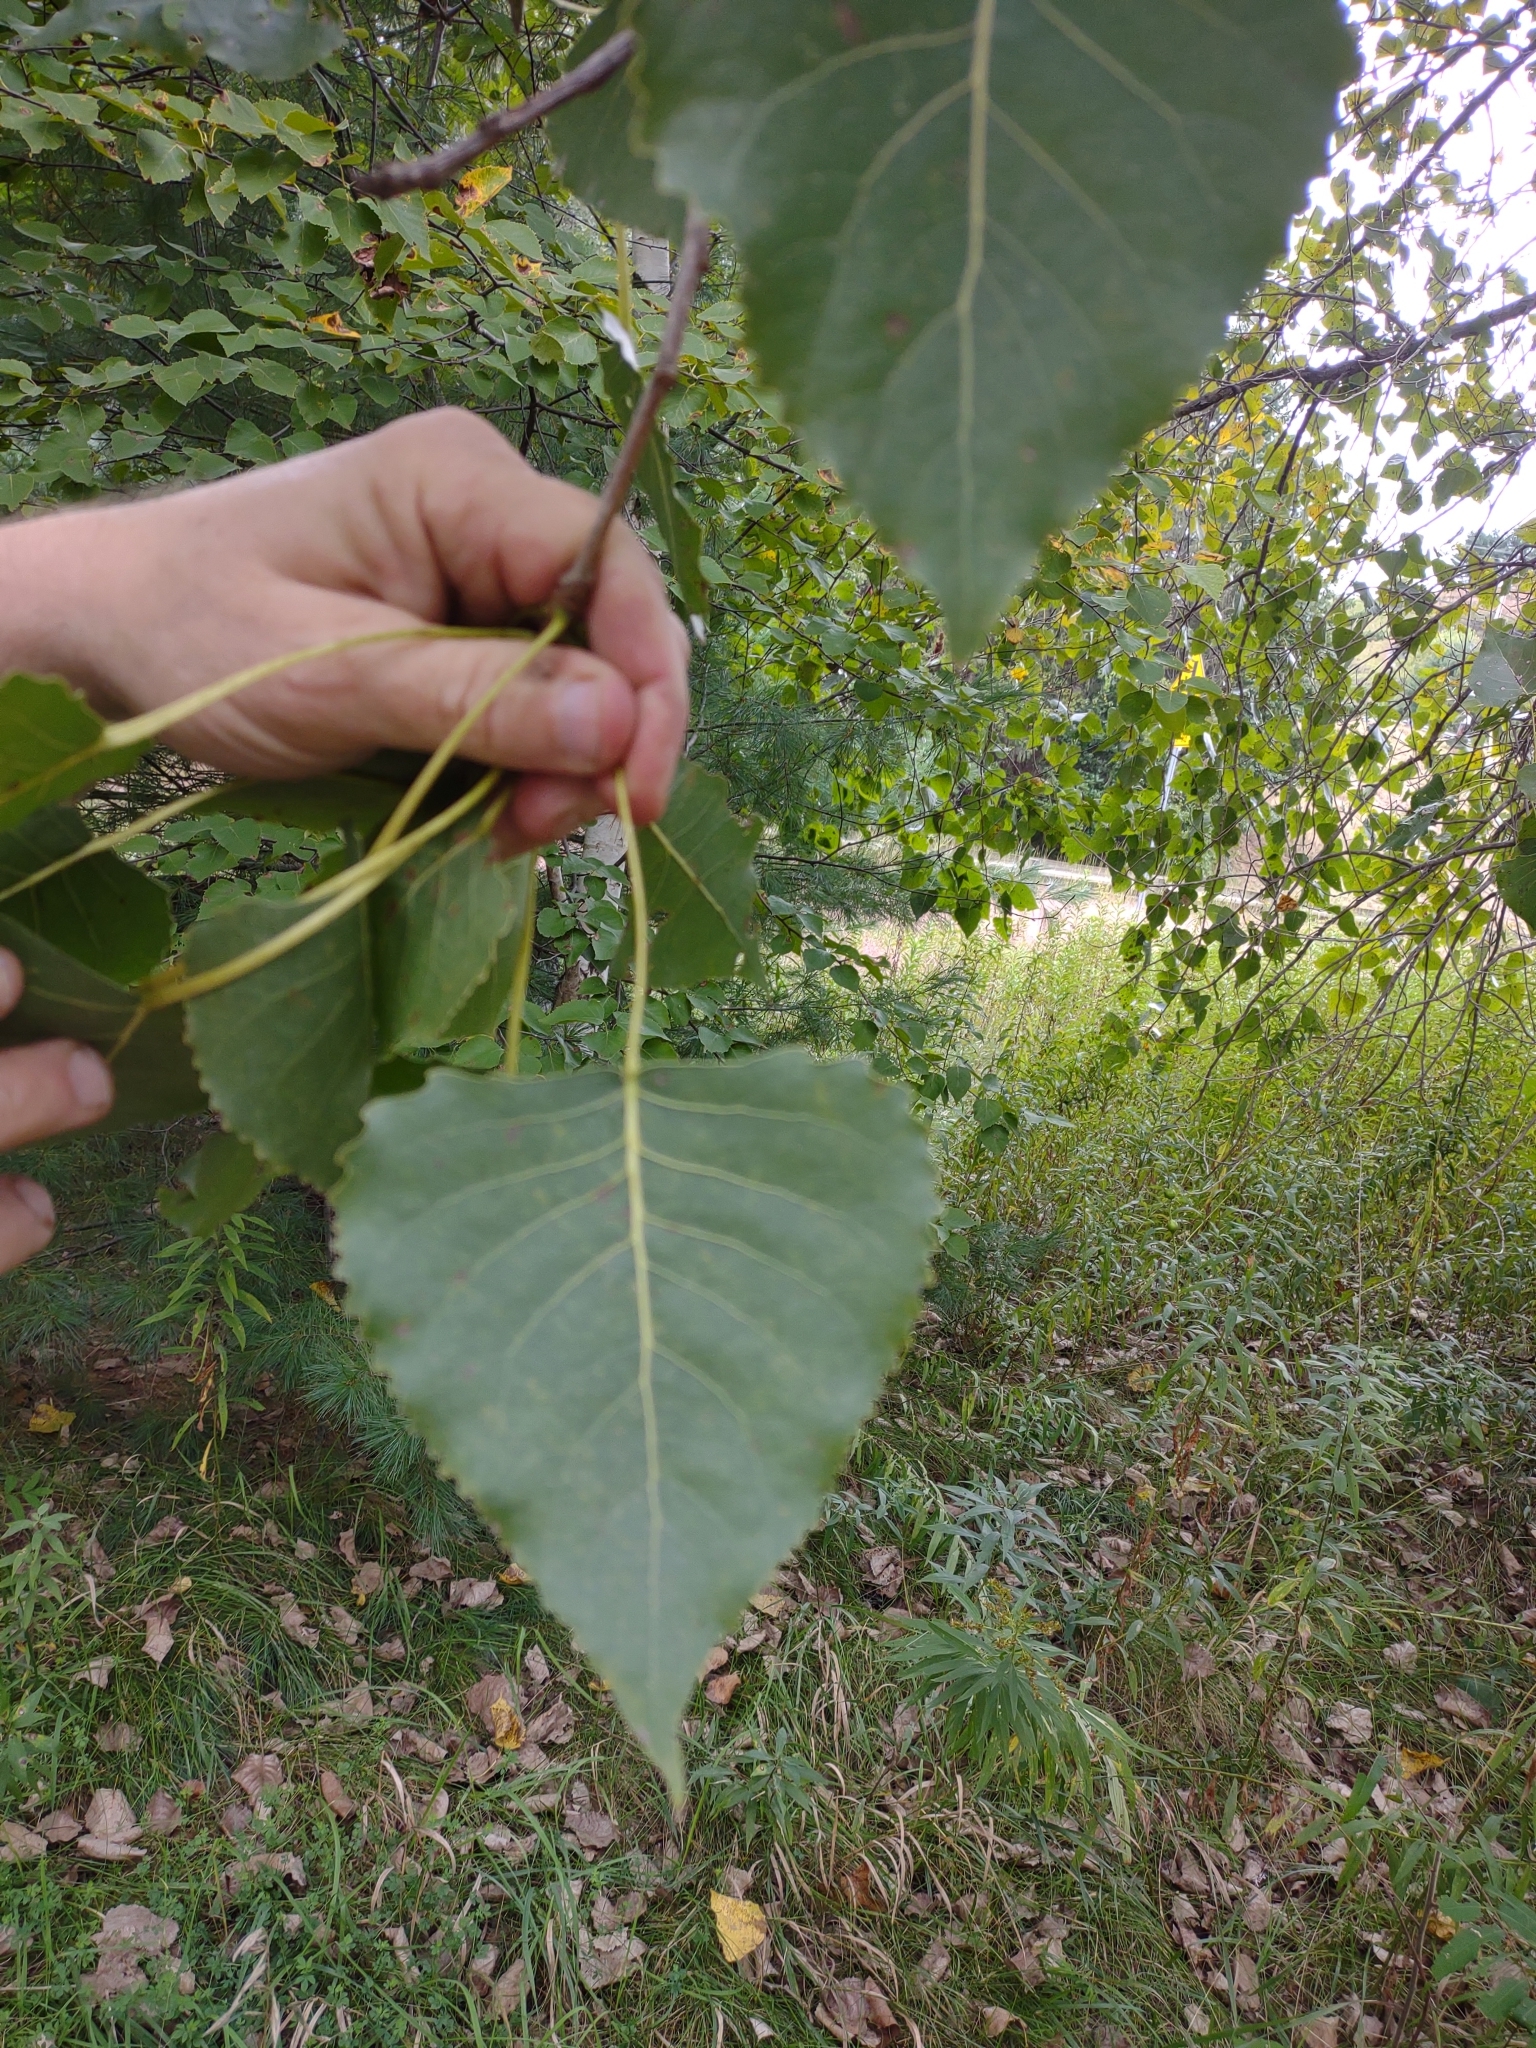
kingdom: Plantae
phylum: Tracheophyta
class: Magnoliopsida
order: Malpighiales
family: Salicaceae
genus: Populus
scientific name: Populus deltoides
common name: Eastern cottonwood
